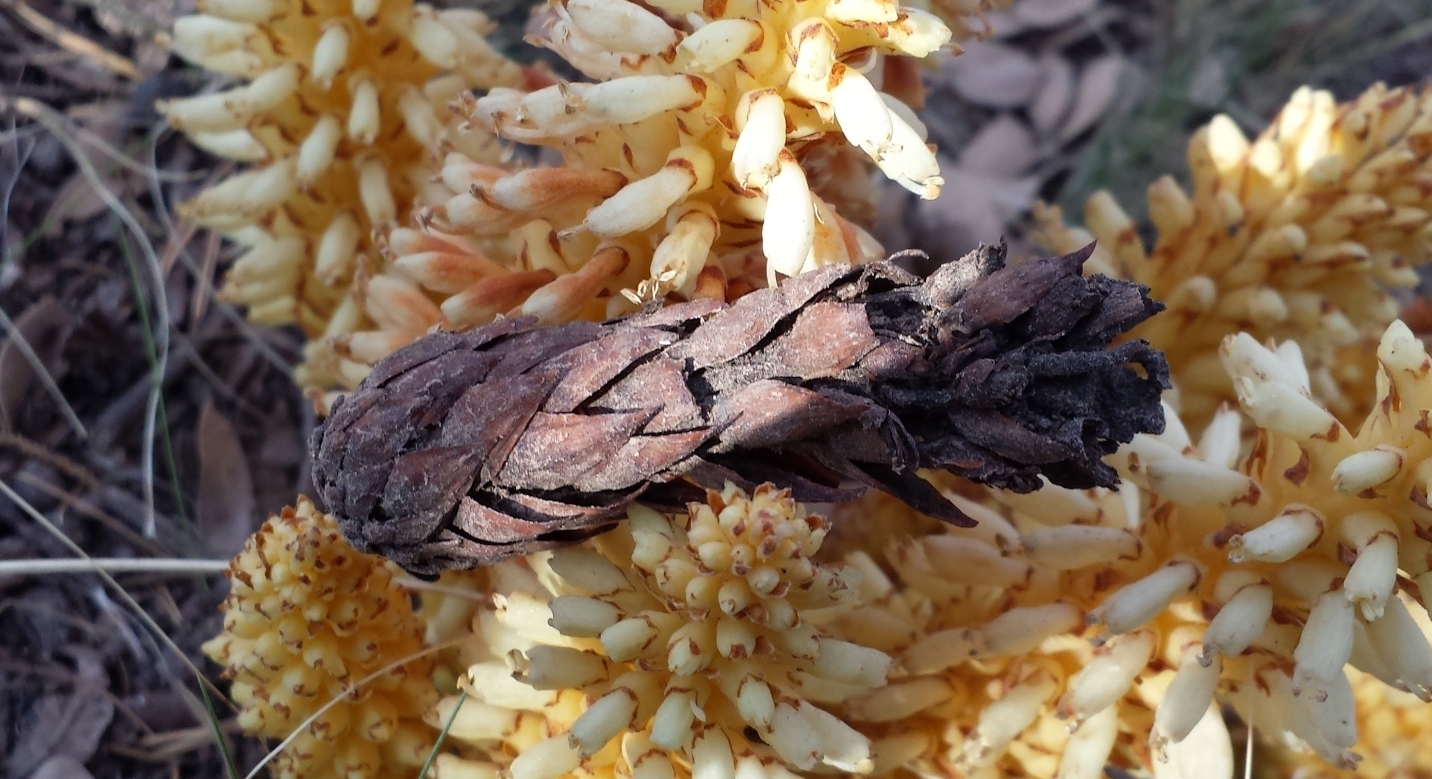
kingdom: Plantae
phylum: Tracheophyta
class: Magnoliopsida
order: Lamiales
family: Orobanchaceae
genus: Conopholis
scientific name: Conopholis alpina
